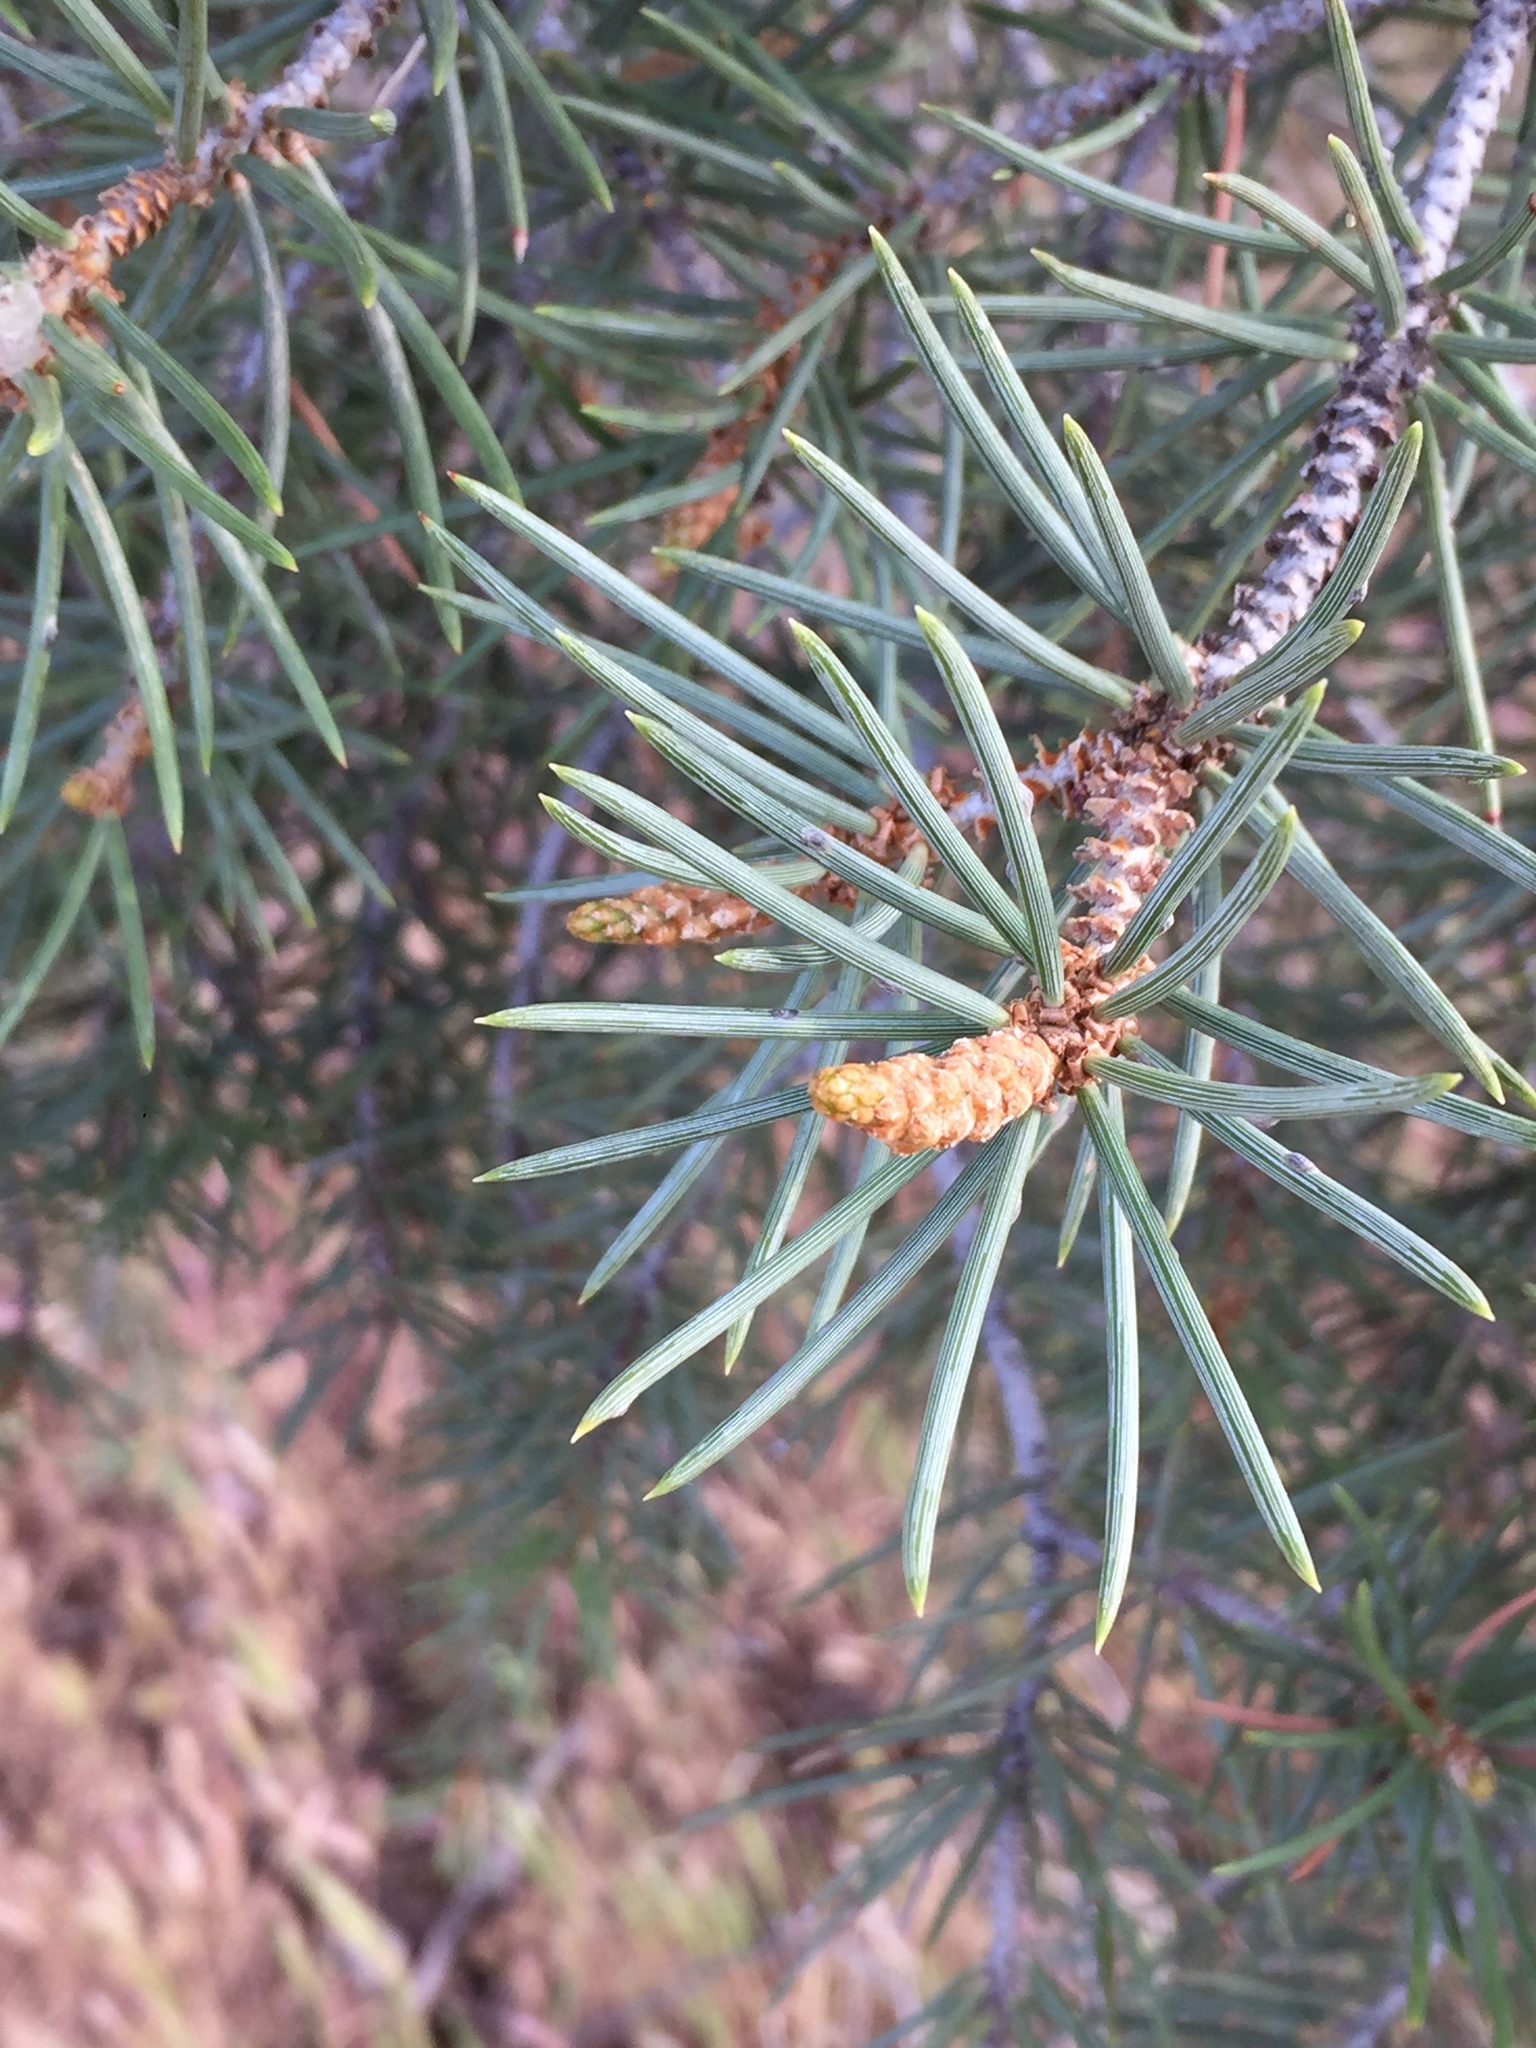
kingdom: Plantae
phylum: Tracheophyta
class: Pinopsida
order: Pinales
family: Pinaceae
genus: Pinus
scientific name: Pinus monophylla
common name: One-leaved nut pine
